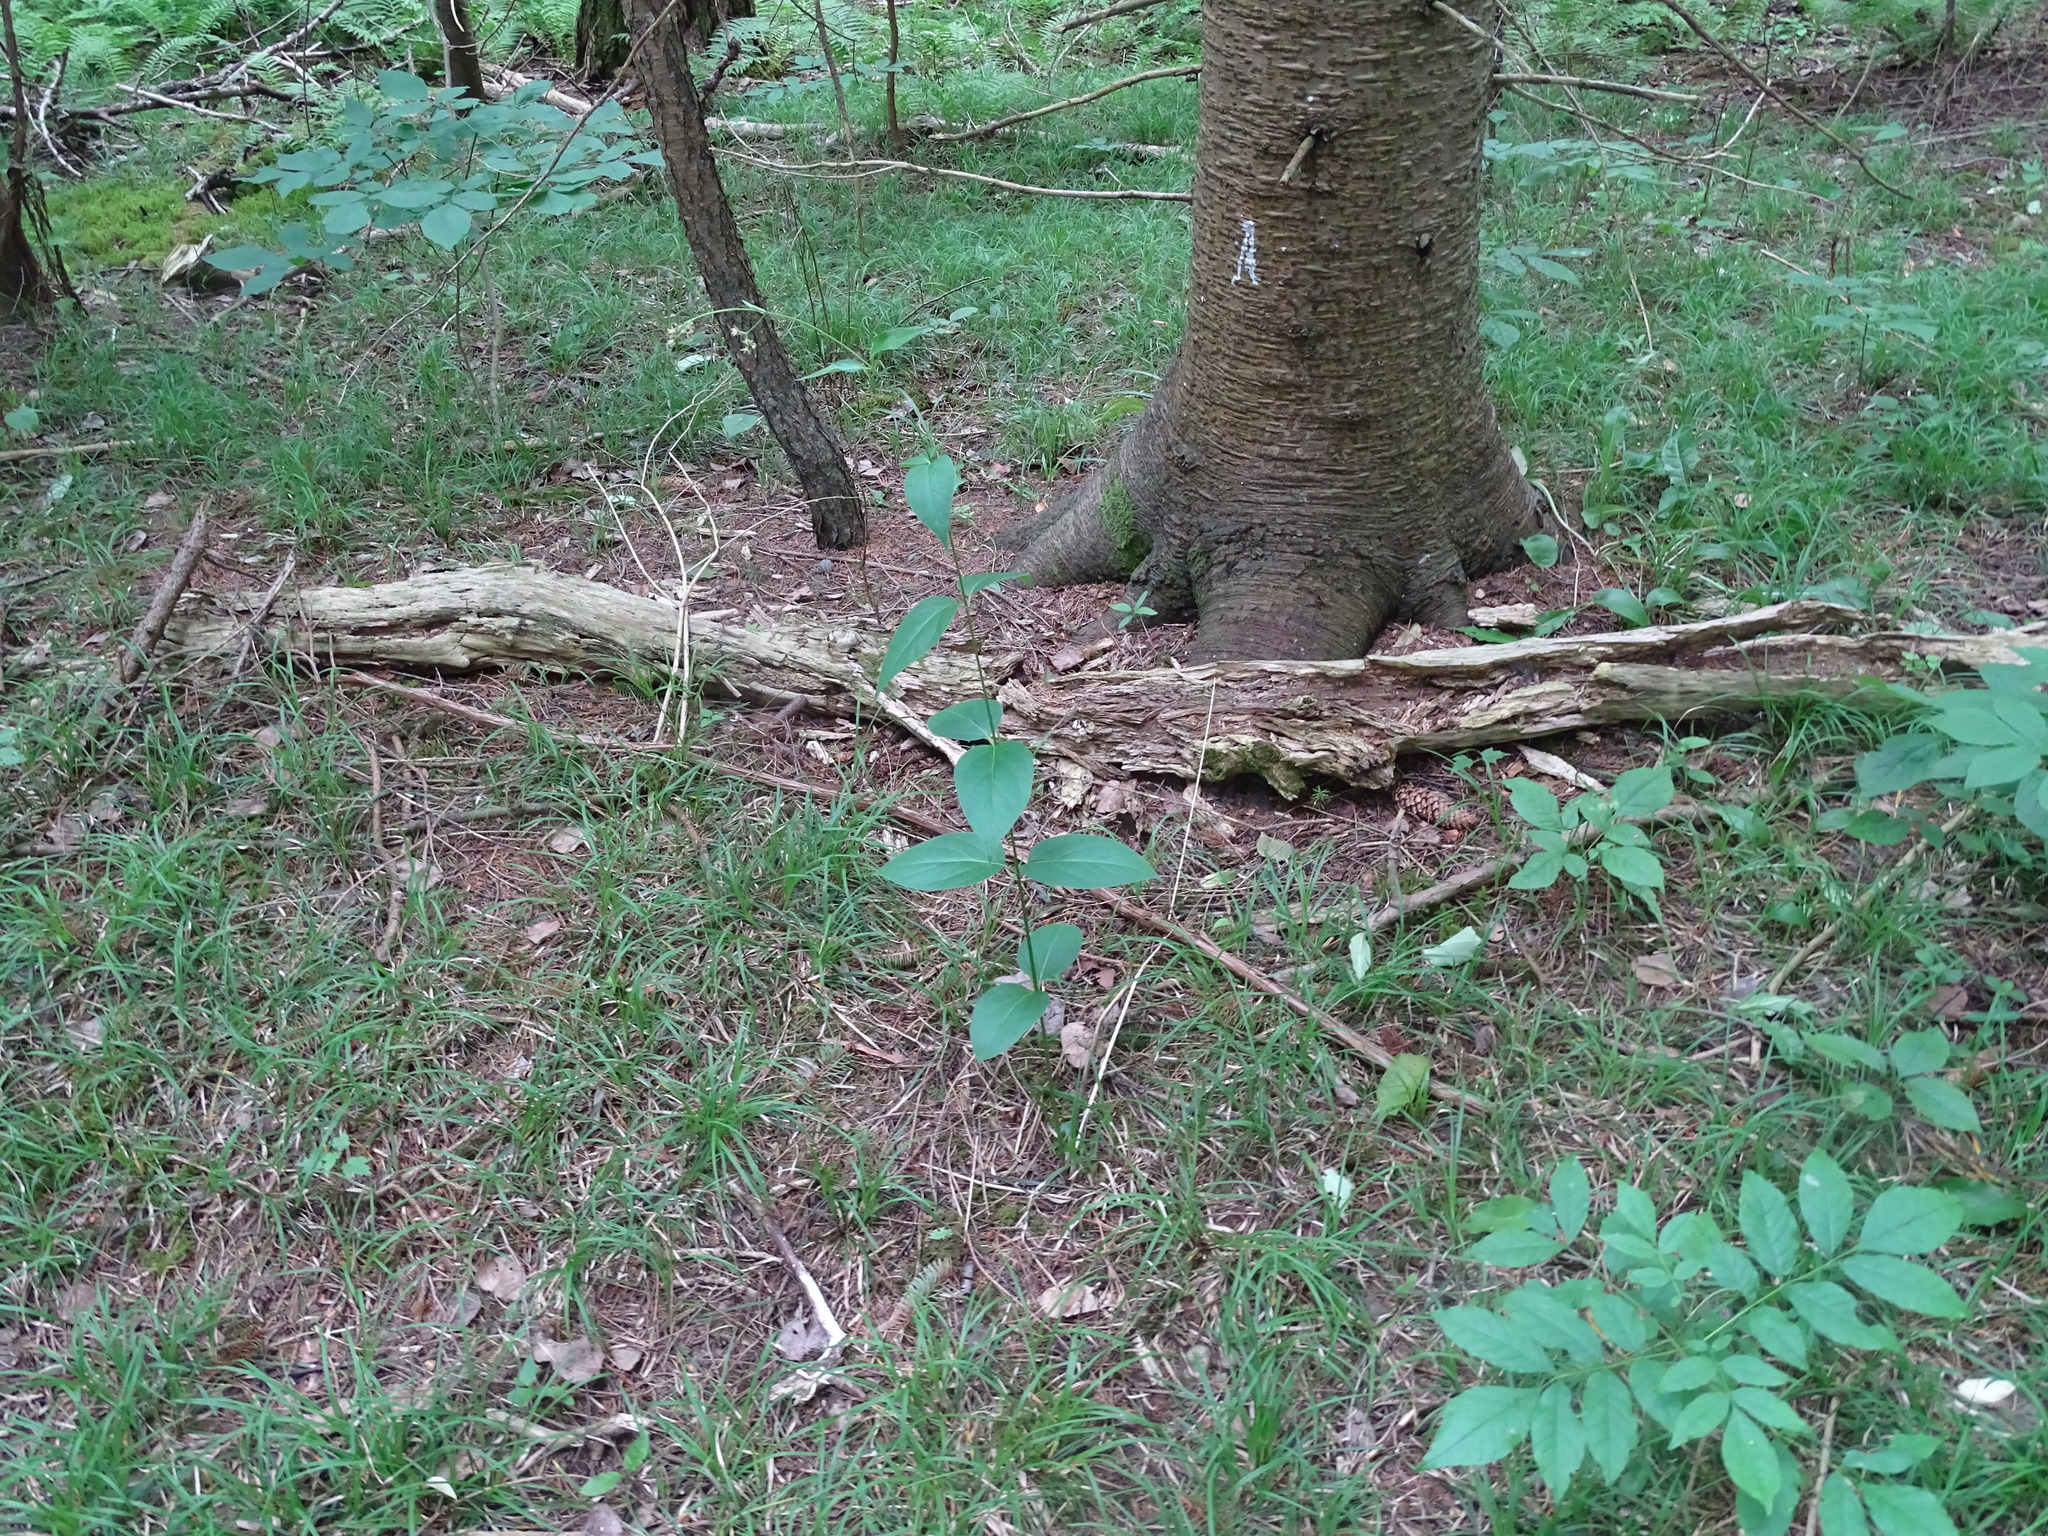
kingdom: Plantae
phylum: Tracheophyta
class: Magnoliopsida
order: Gentianales
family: Apocynaceae
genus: Vincetoxicum
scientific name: Vincetoxicum rossicum
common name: Dog-strangling vine
